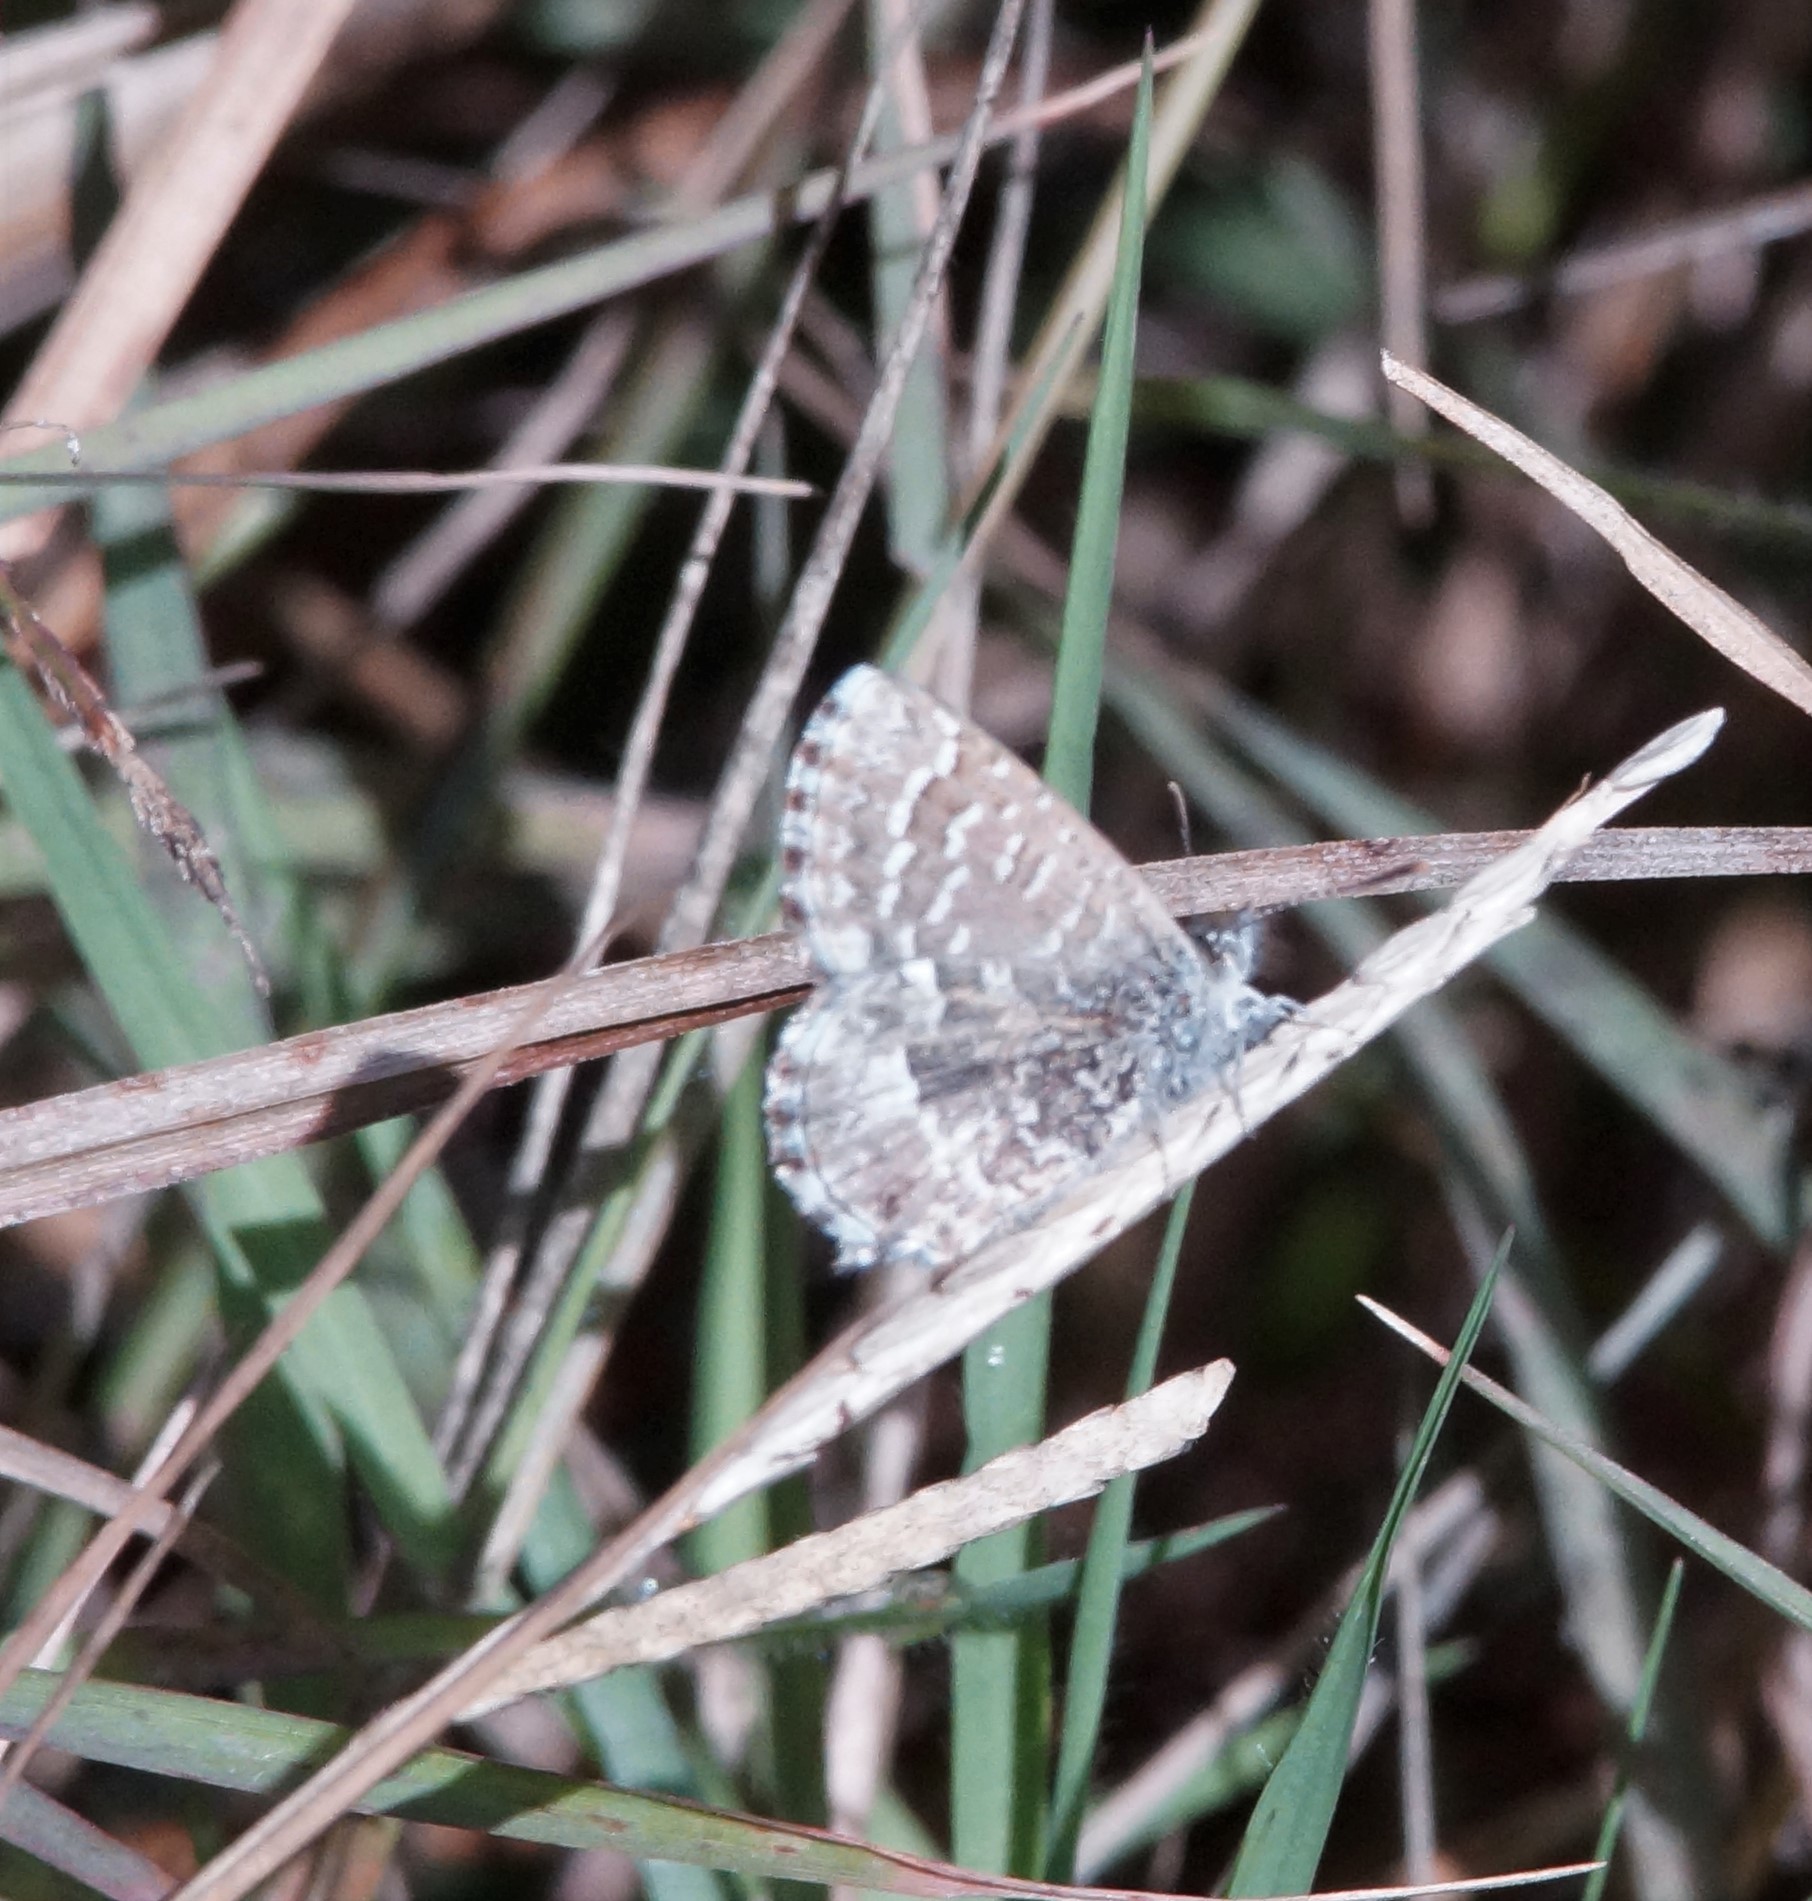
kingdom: Animalia
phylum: Arthropoda
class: Insecta
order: Lepidoptera
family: Lycaenidae
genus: Theclinesthes
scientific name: Theclinesthes serpentata
